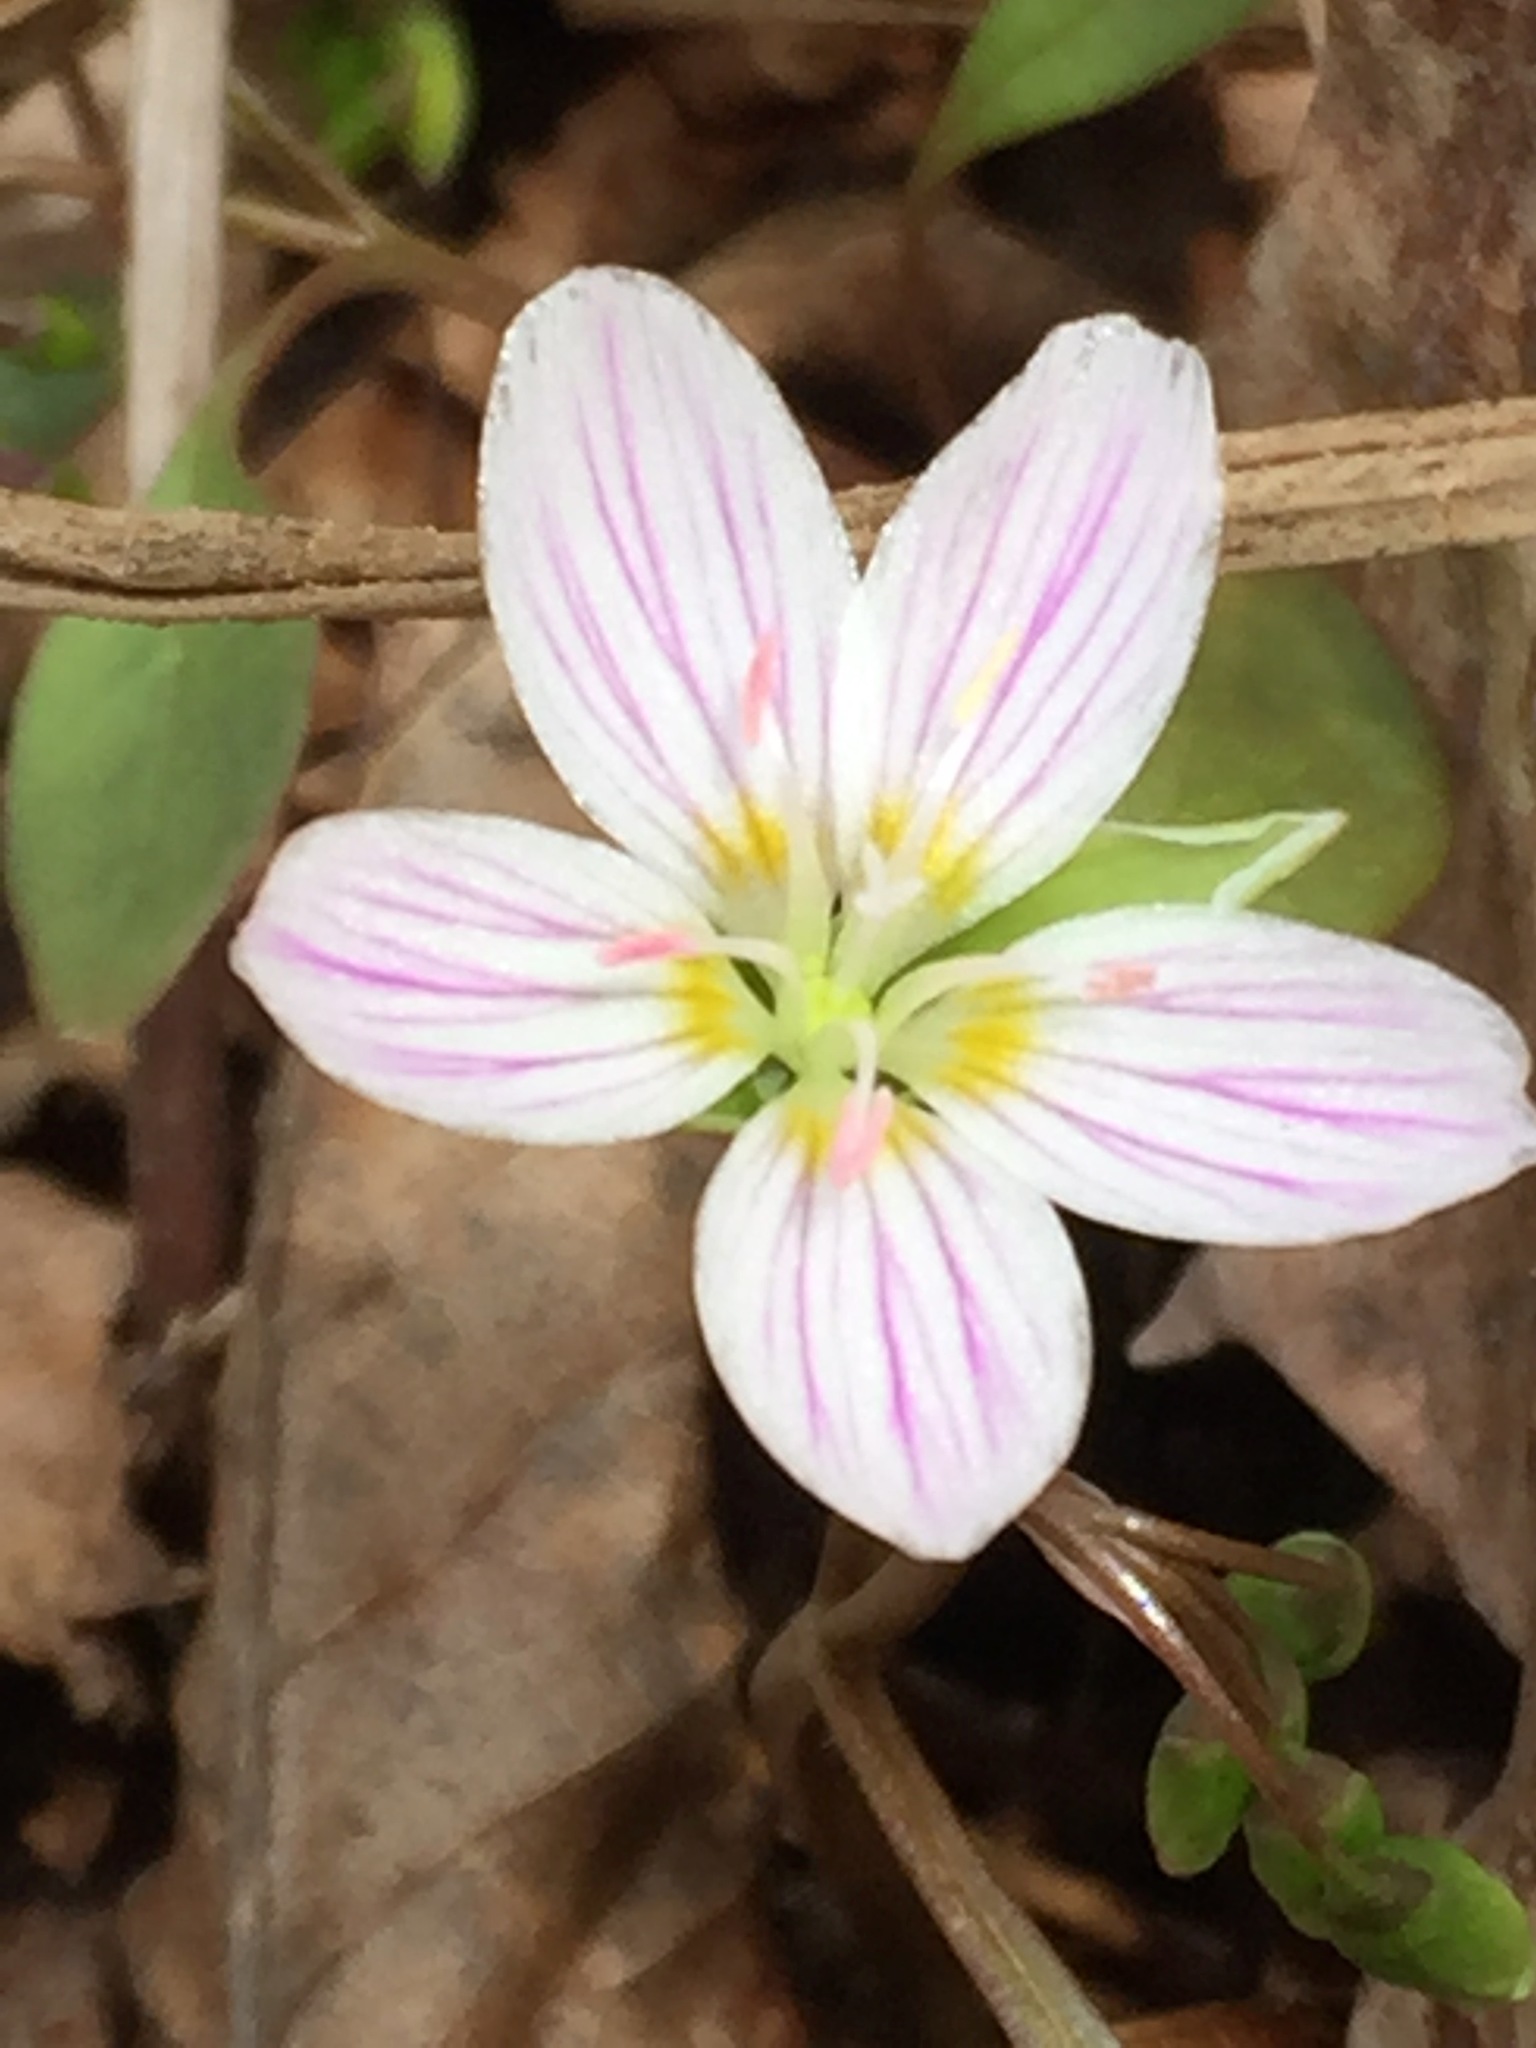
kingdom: Plantae
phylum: Tracheophyta
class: Magnoliopsida
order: Caryophyllales
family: Montiaceae
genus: Claytonia
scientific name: Claytonia caroliniana
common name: Carolina spring beauty
